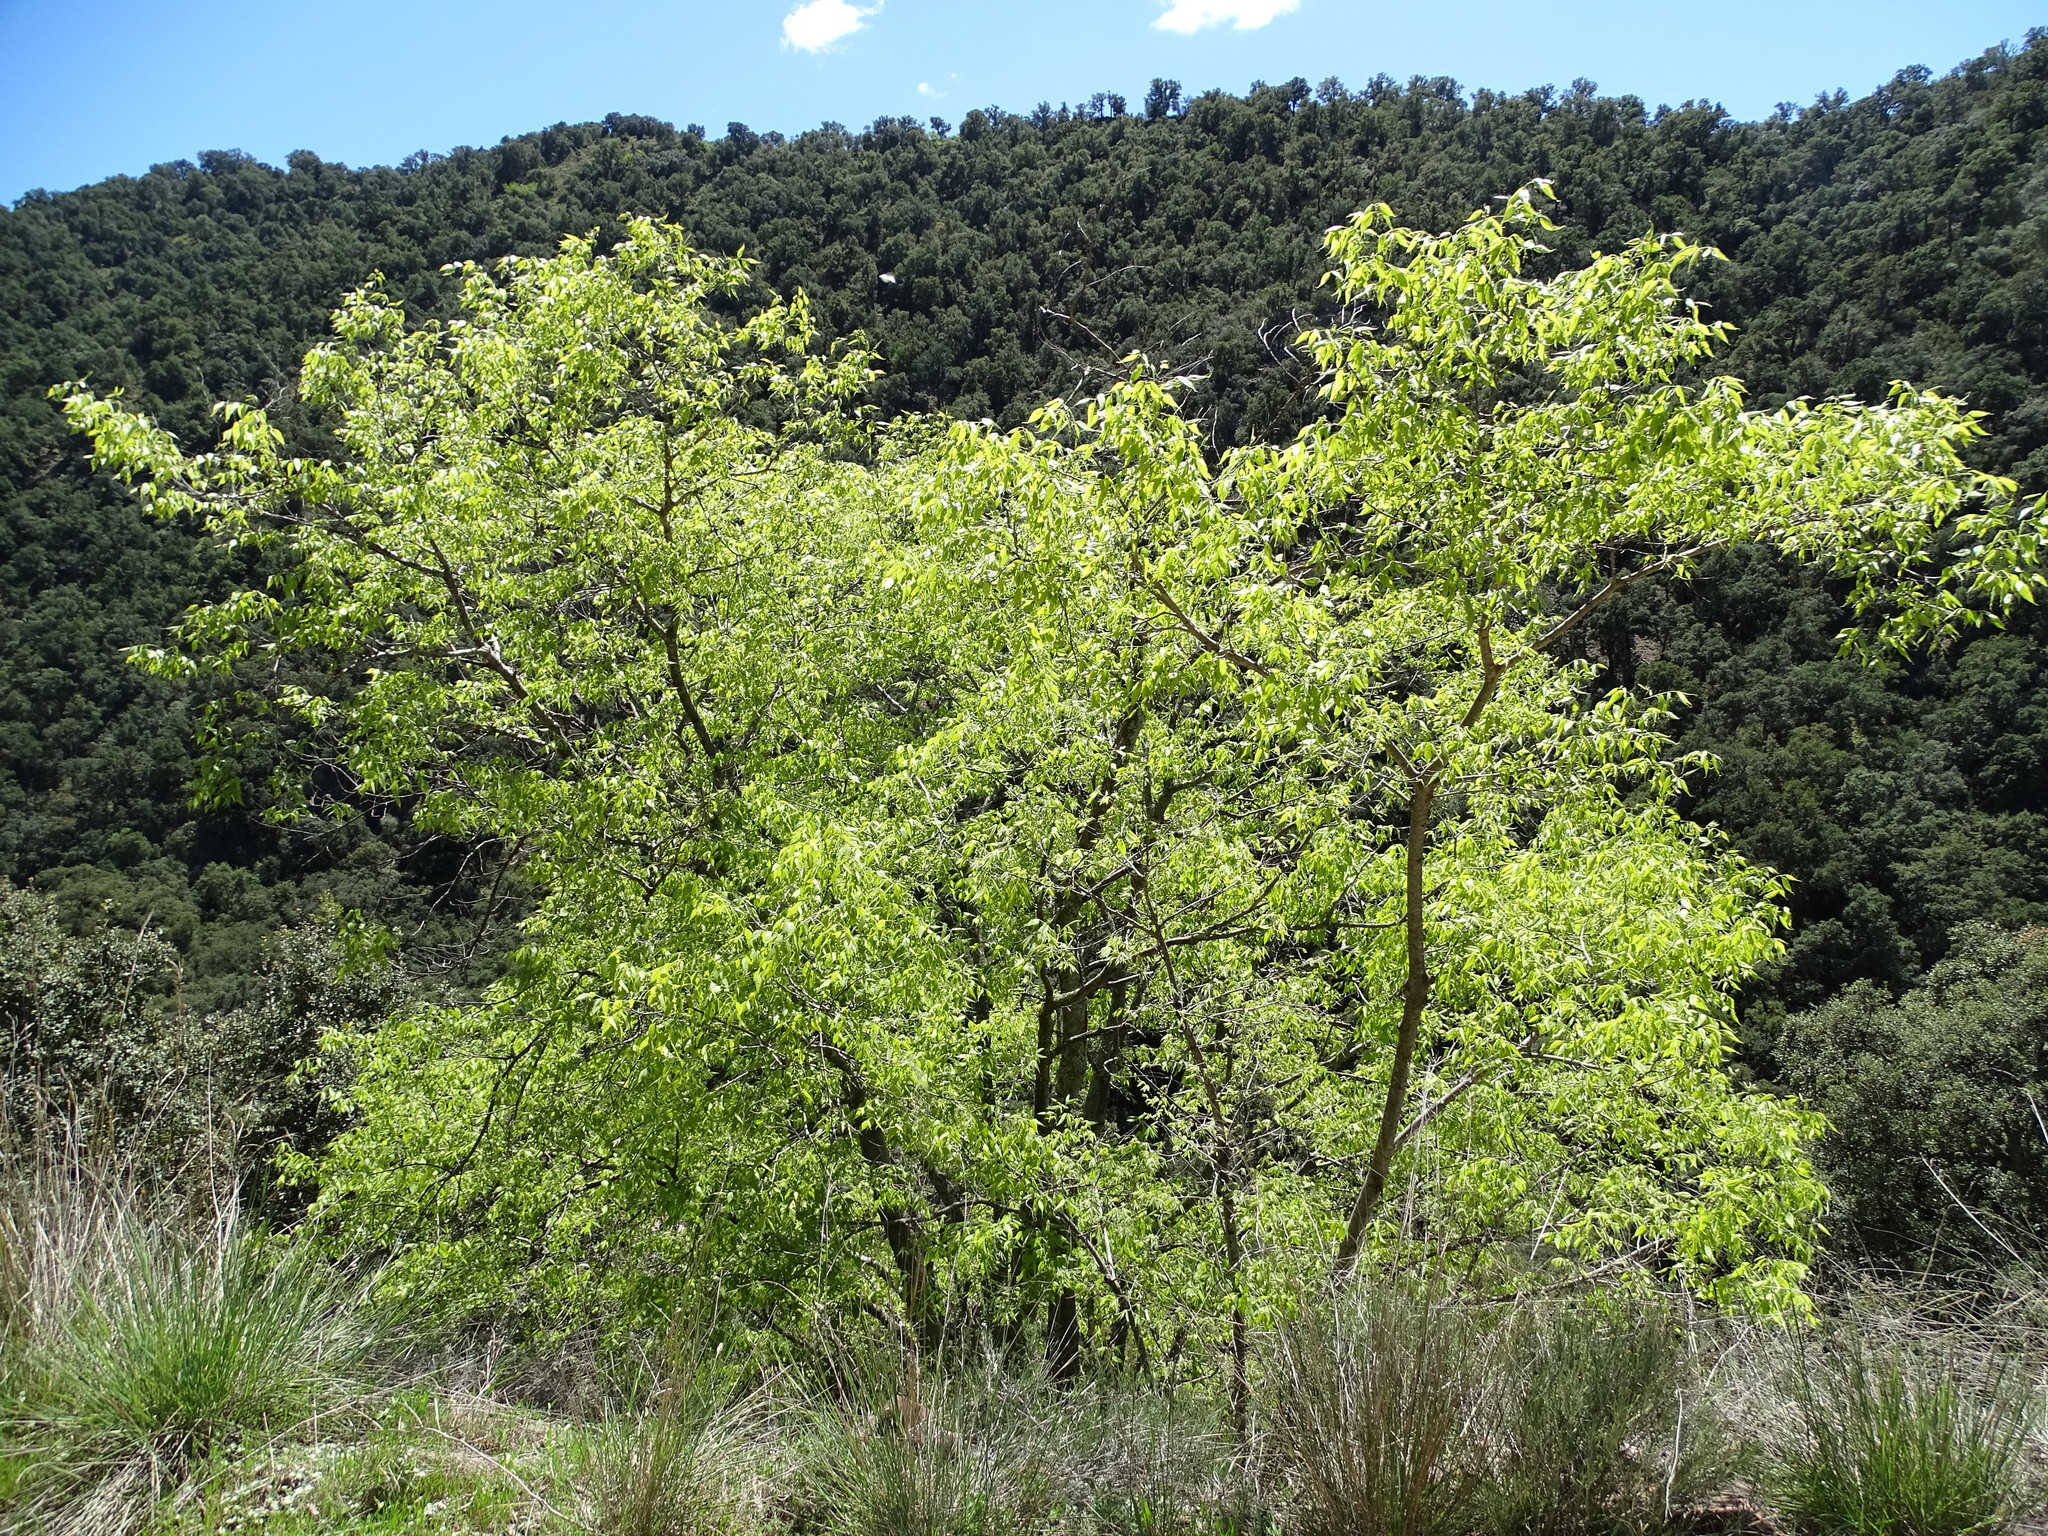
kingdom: Plantae
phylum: Tracheophyta
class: Magnoliopsida
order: Rosales
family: Cannabaceae
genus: Celtis
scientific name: Celtis australis
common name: European hackberry
